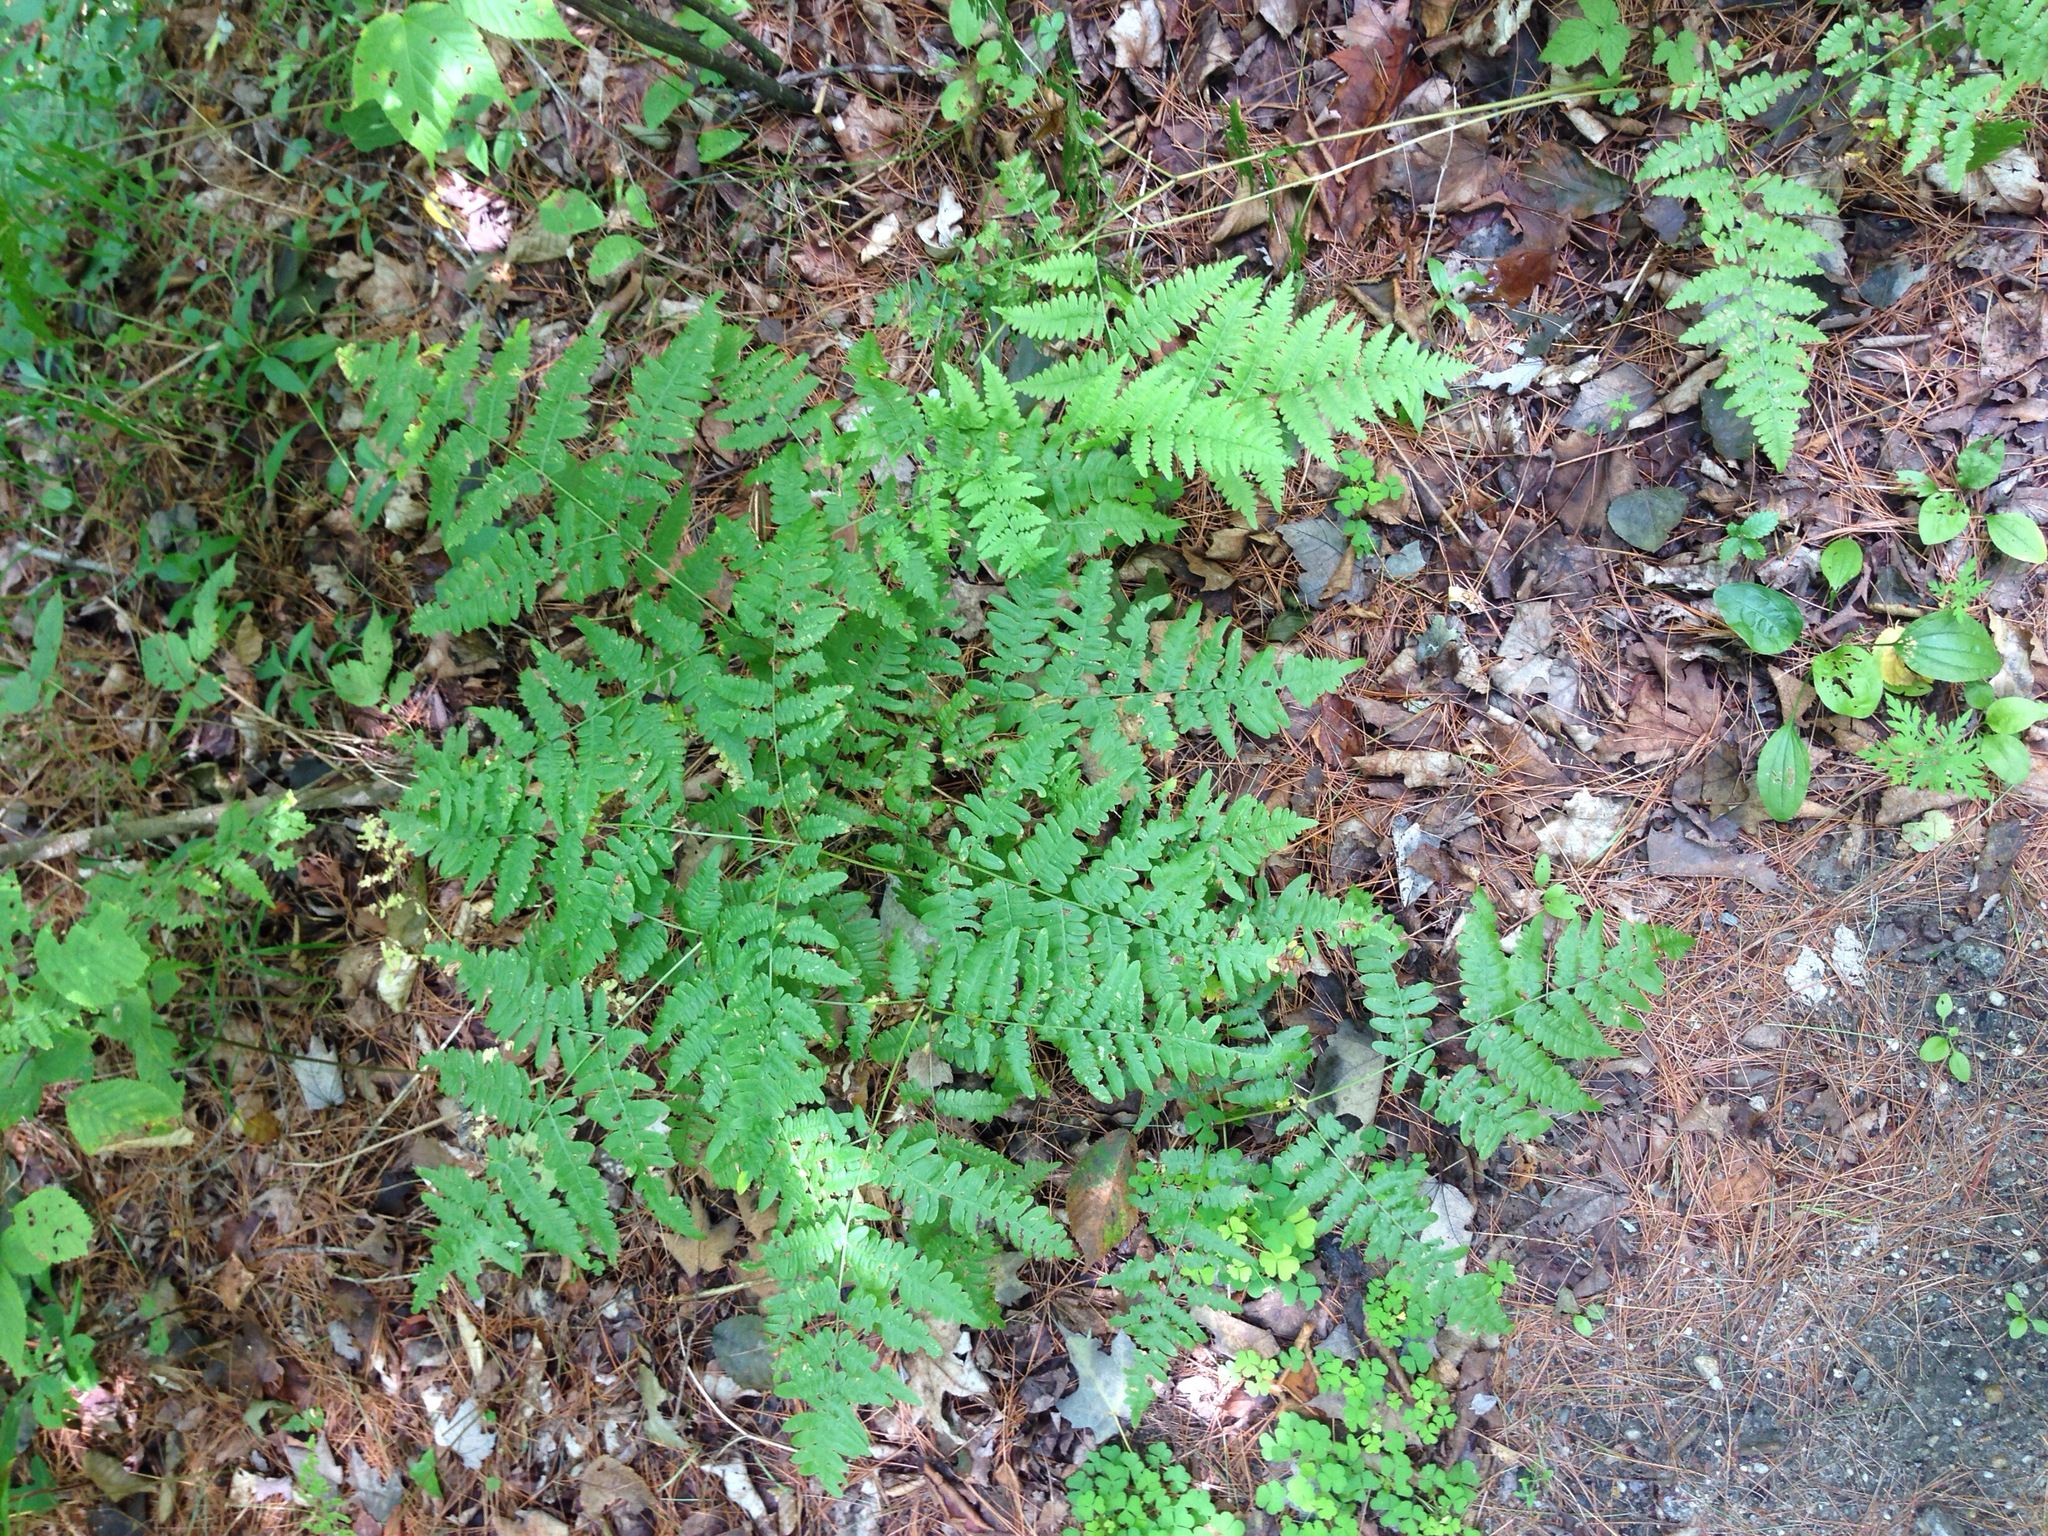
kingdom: Plantae
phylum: Tracheophyta
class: Polypodiopsida
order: Polypodiales
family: Dennstaedtiaceae
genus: Pteridium
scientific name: Pteridium aquilinum
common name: Bracken
